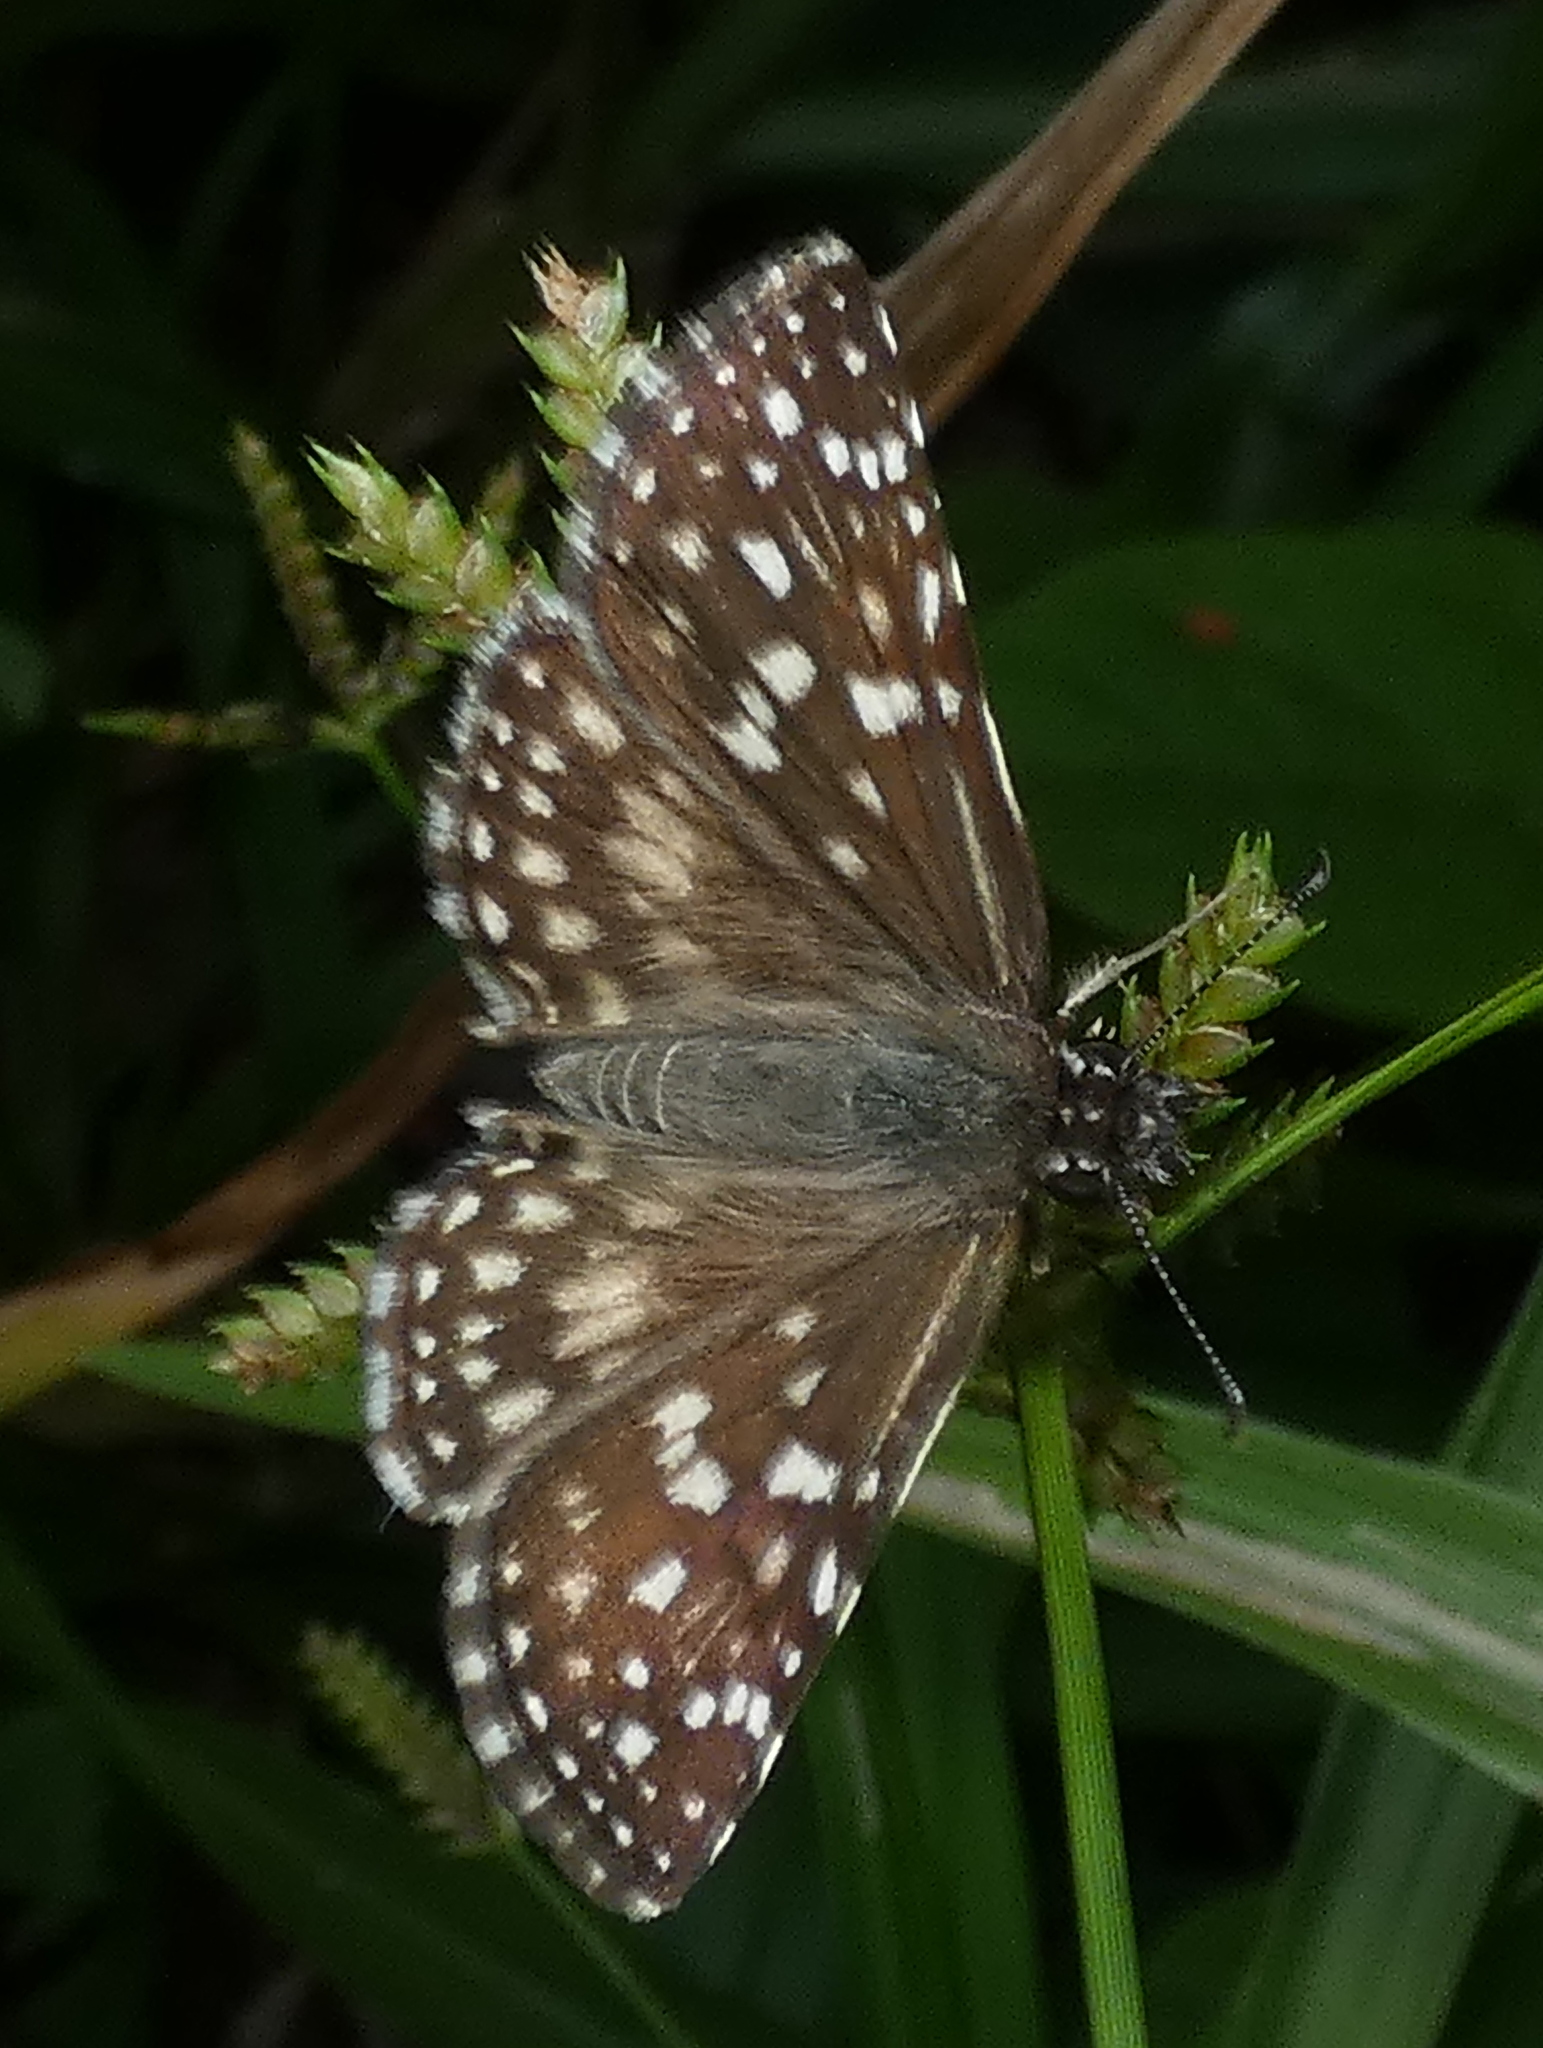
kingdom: Animalia
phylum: Arthropoda
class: Insecta
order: Lepidoptera
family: Hesperiidae
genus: Pyrgus
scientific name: Pyrgus oileus
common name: Tropical checkered-skipper
